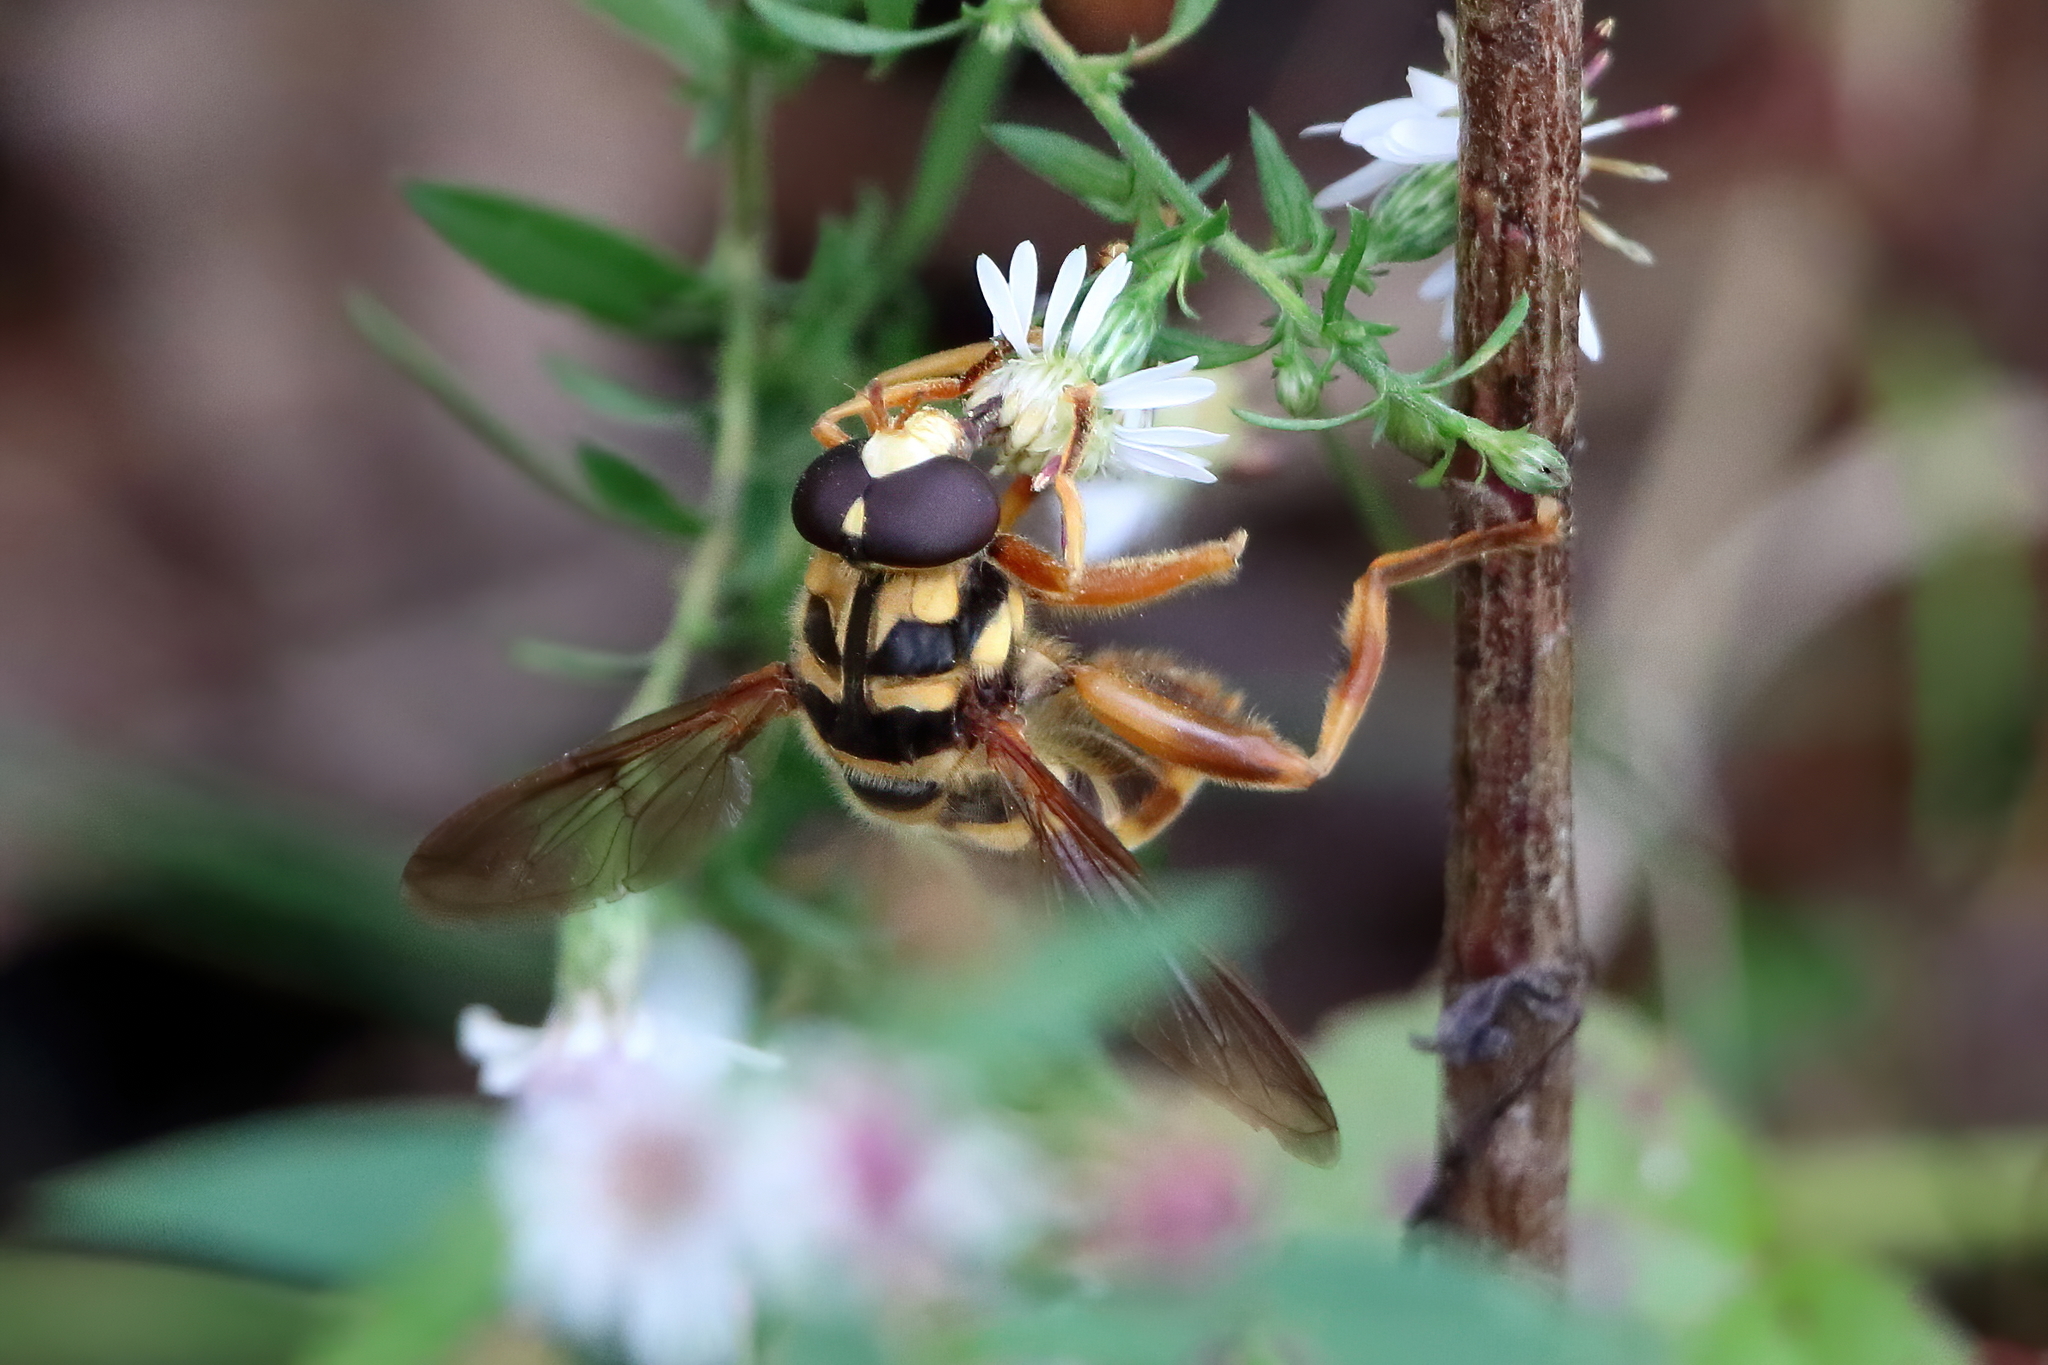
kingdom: Animalia
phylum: Arthropoda
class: Insecta
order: Diptera
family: Syrphidae
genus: Milesia
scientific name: Milesia virginiensis
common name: Virginia giant
